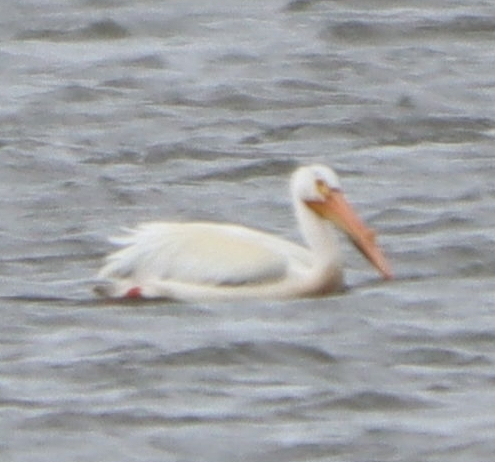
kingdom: Animalia
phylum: Chordata
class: Aves
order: Pelecaniformes
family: Pelecanidae
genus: Pelecanus
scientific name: Pelecanus erythrorhynchos
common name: American white pelican
